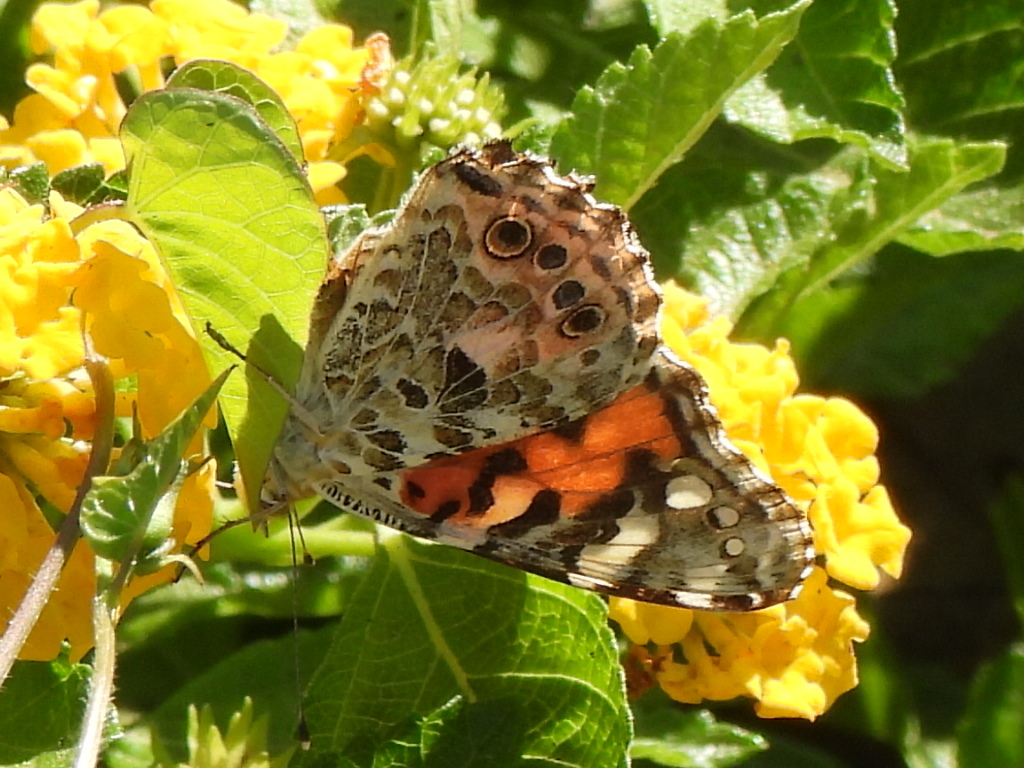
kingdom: Animalia
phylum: Arthropoda
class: Insecta
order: Lepidoptera
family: Nymphalidae
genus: Vanessa
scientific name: Vanessa cardui
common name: Painted lady
